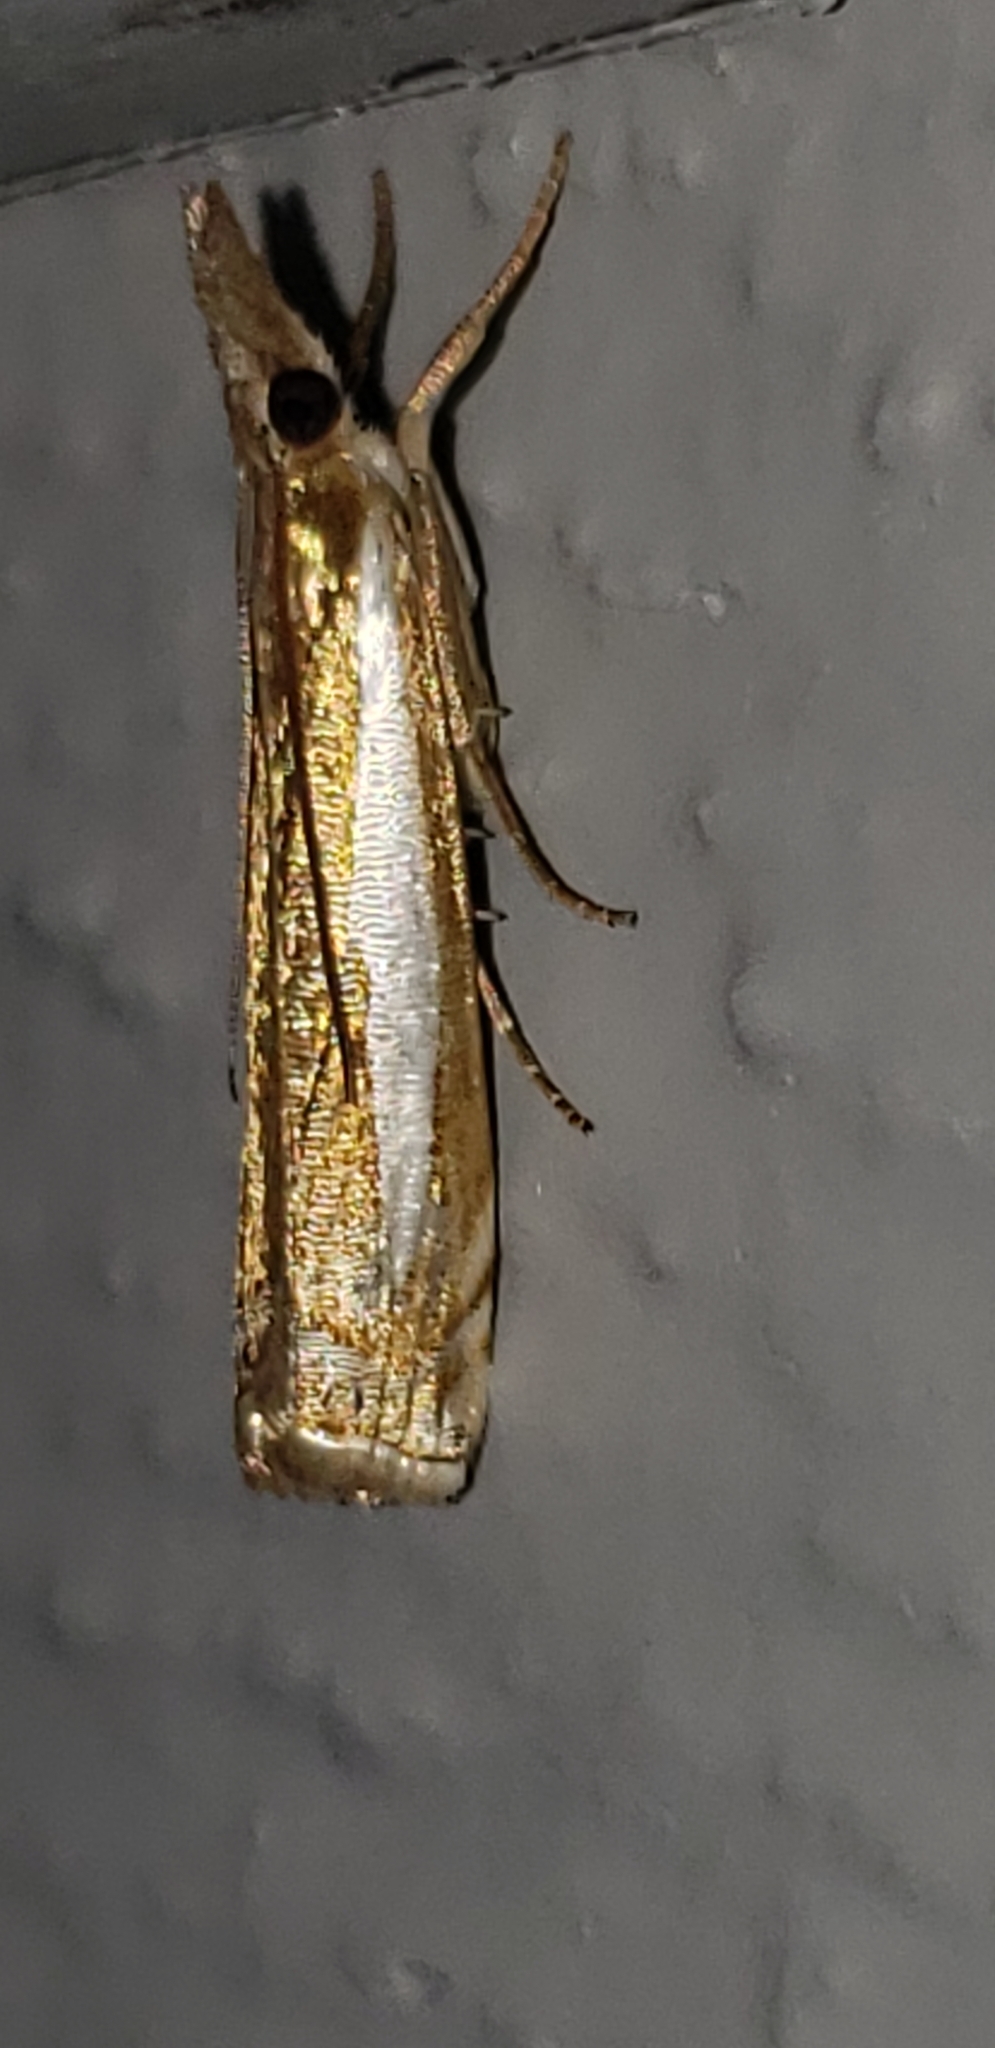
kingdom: Animalia
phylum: Arthropoda
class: Insecta
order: Lepidoptera
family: Crambidae
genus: Crambus
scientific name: Crambus praefectellus
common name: Common grass-veneer
